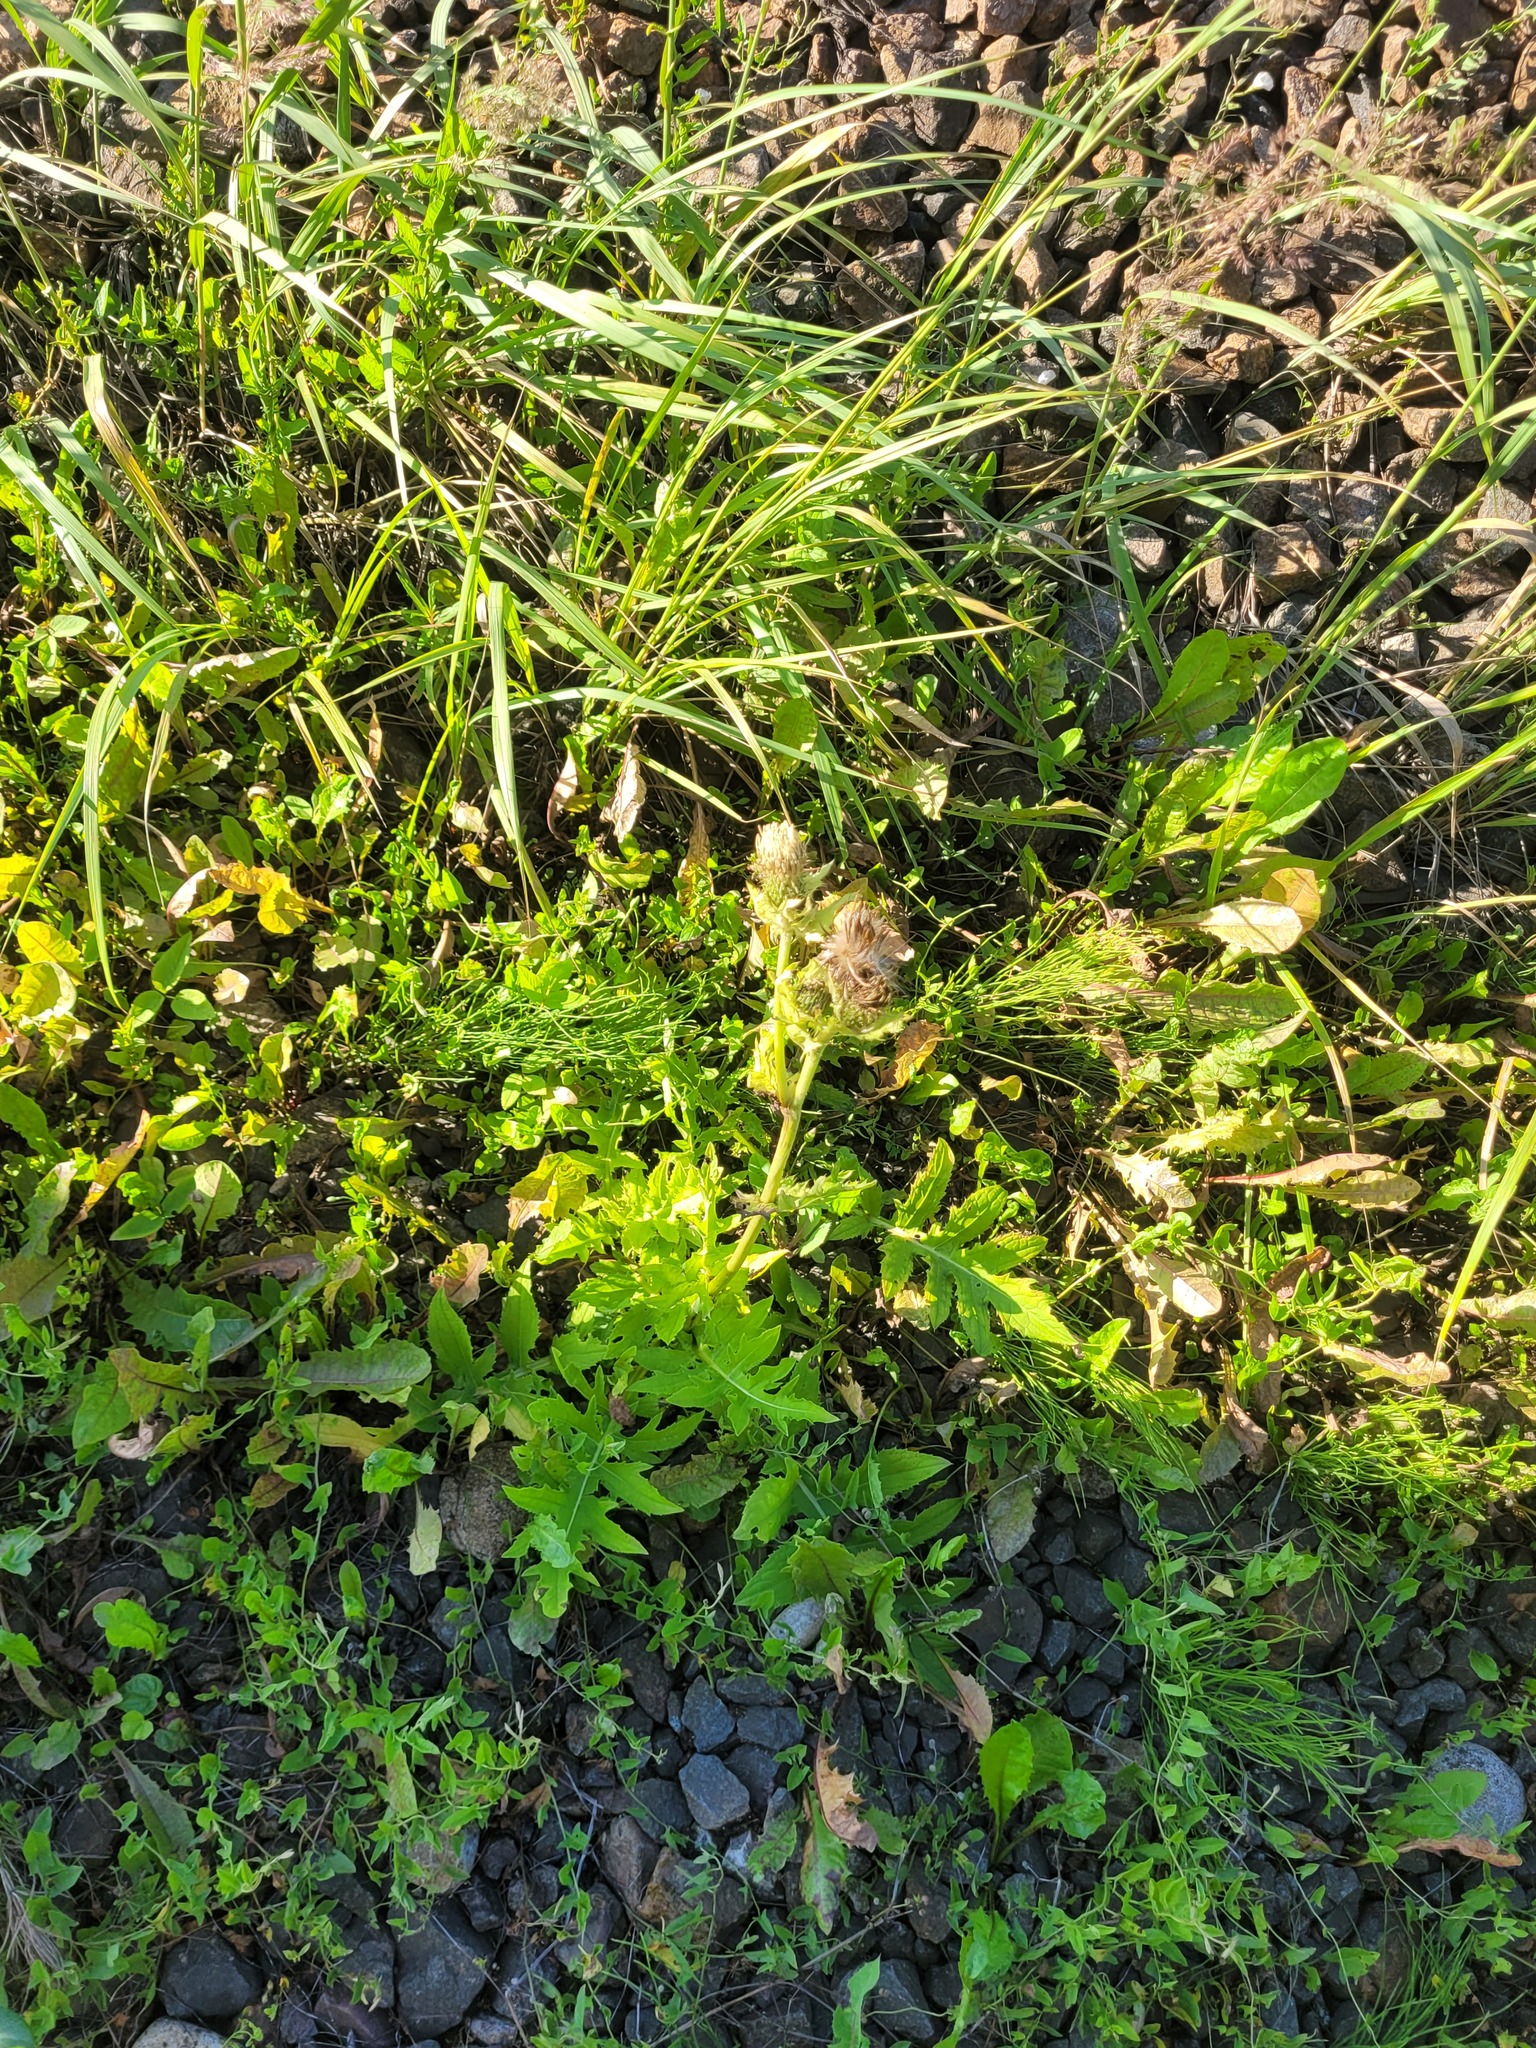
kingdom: Plantae
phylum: Tracheophyta
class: Magnoliopsida
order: Asterales
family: Asteraceae
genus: Cirsium
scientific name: Cirsium oleraceum
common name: Cabbage thistle
